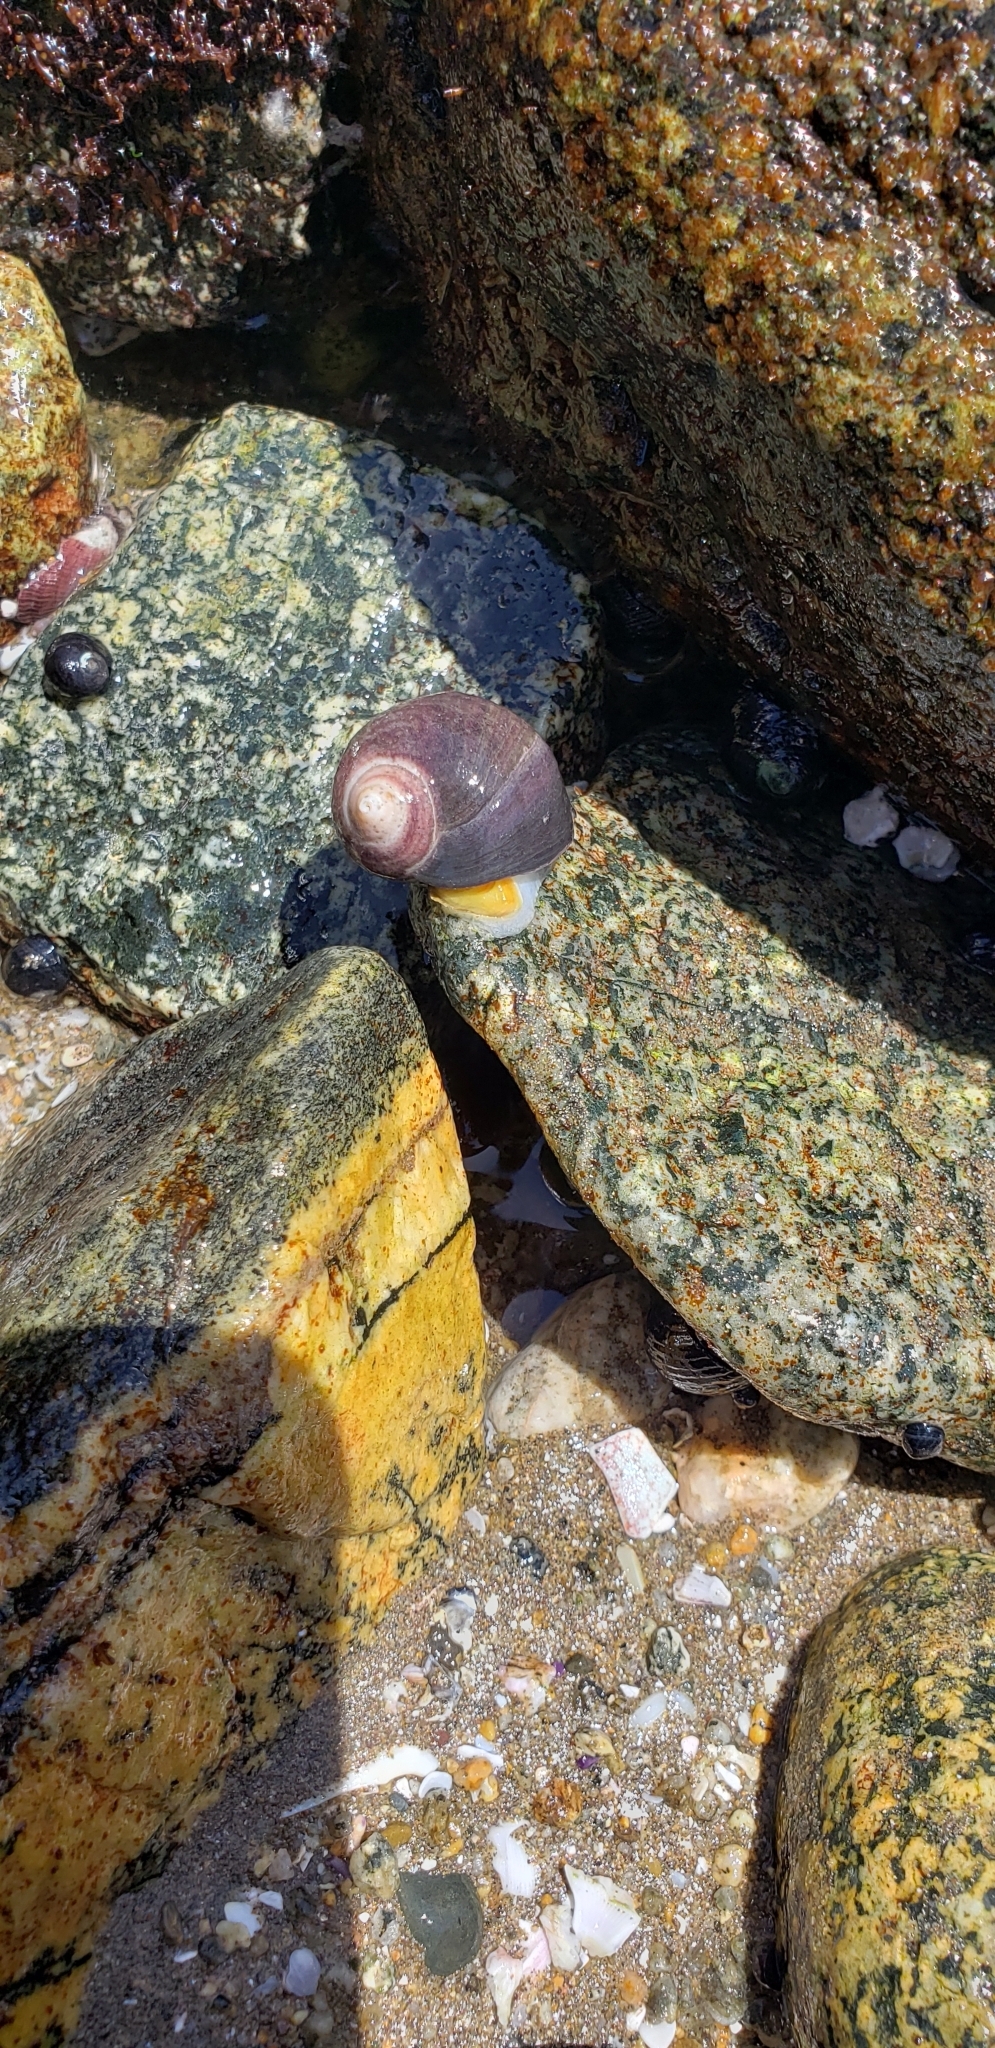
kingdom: Animalia
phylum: Mollusca
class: Gastropoda
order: Neogastropoda
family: Muricidae
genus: Acanthina
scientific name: Acanthina monodon
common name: One-toothed thais
